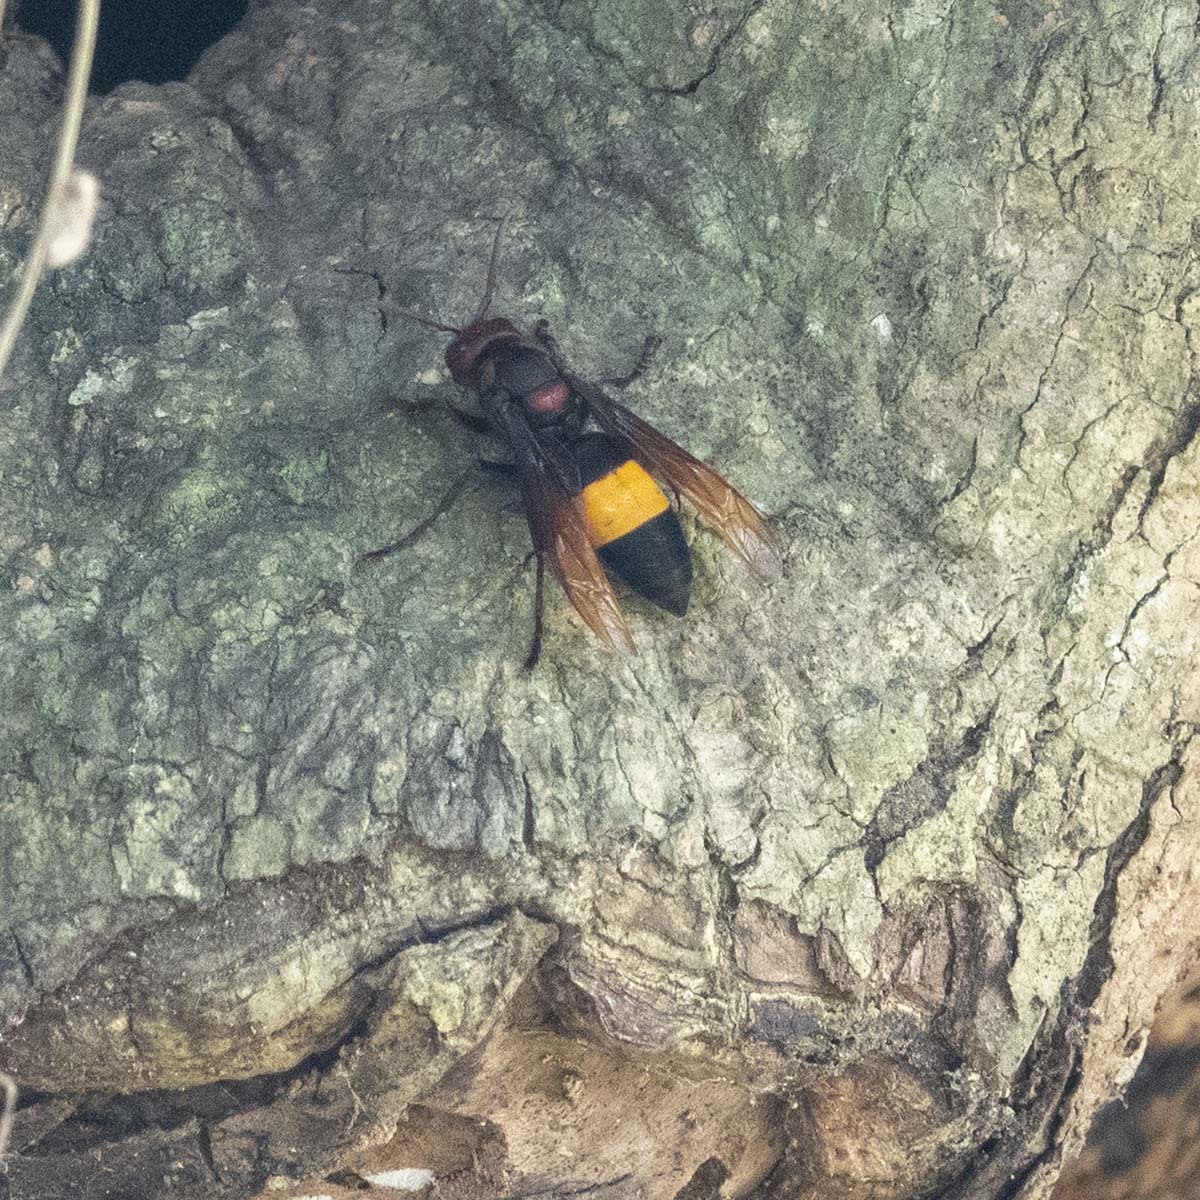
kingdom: Animalia
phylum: Arthropoda
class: Insecta
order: Hymenoptera
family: Vespidae
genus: Vespa
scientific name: Vespa tropica
